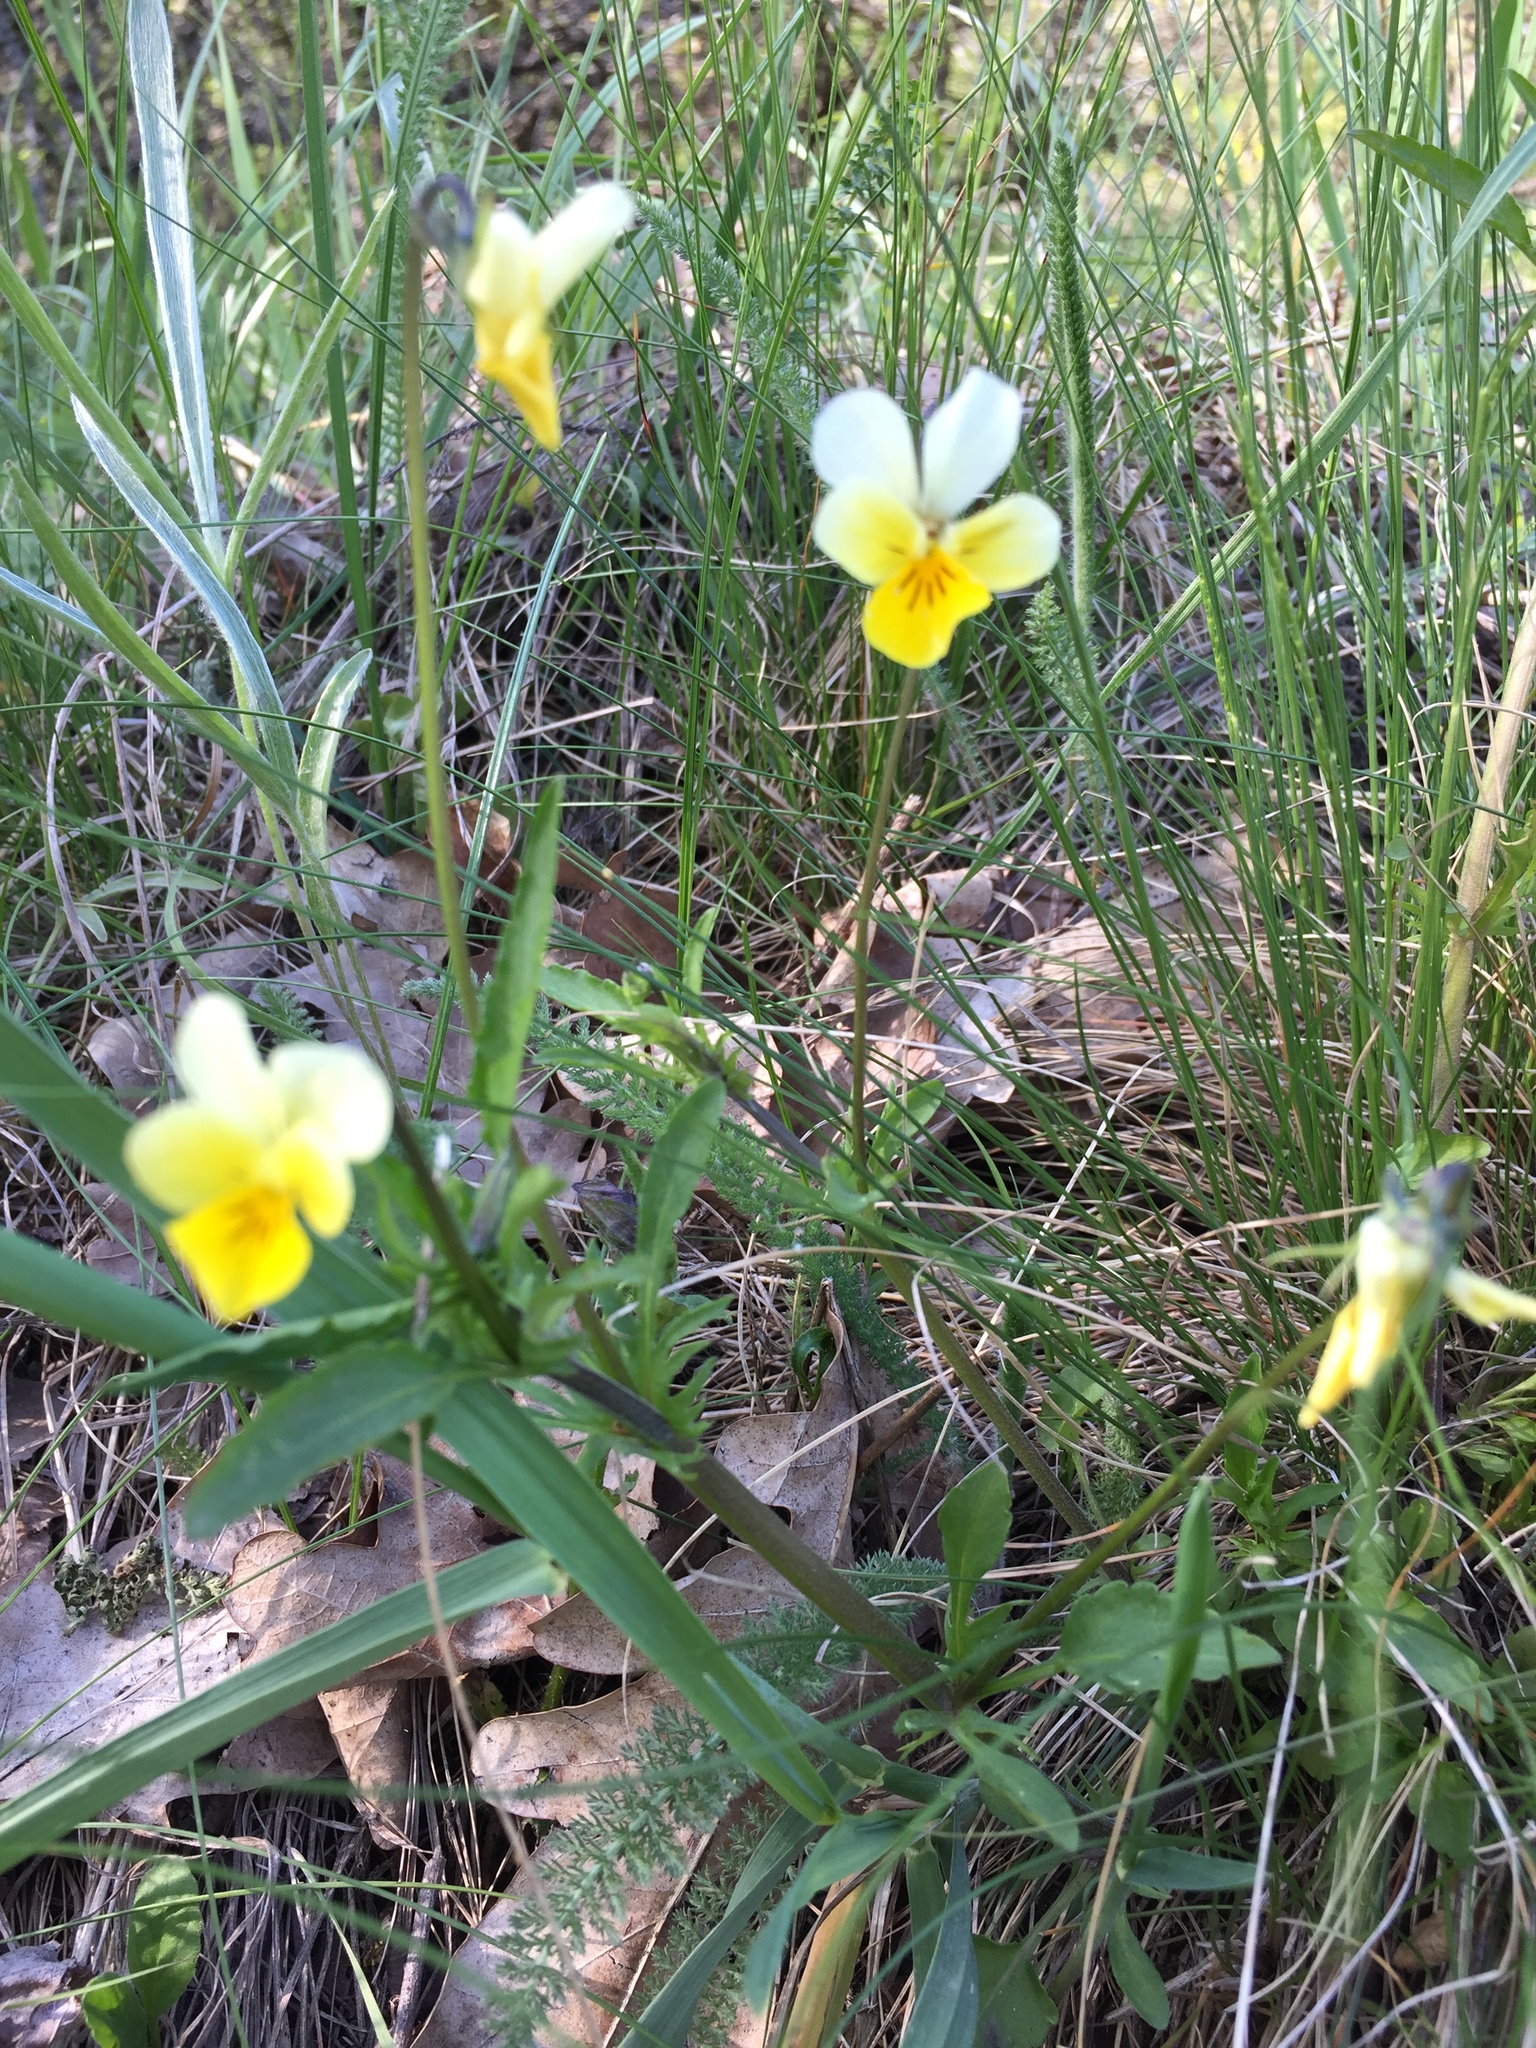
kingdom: Plantae
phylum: Tracheophyta
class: Magnoliopsida
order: Malpighiales
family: Violaceae
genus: Viola
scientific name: Viola arvensis
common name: Field pansy
